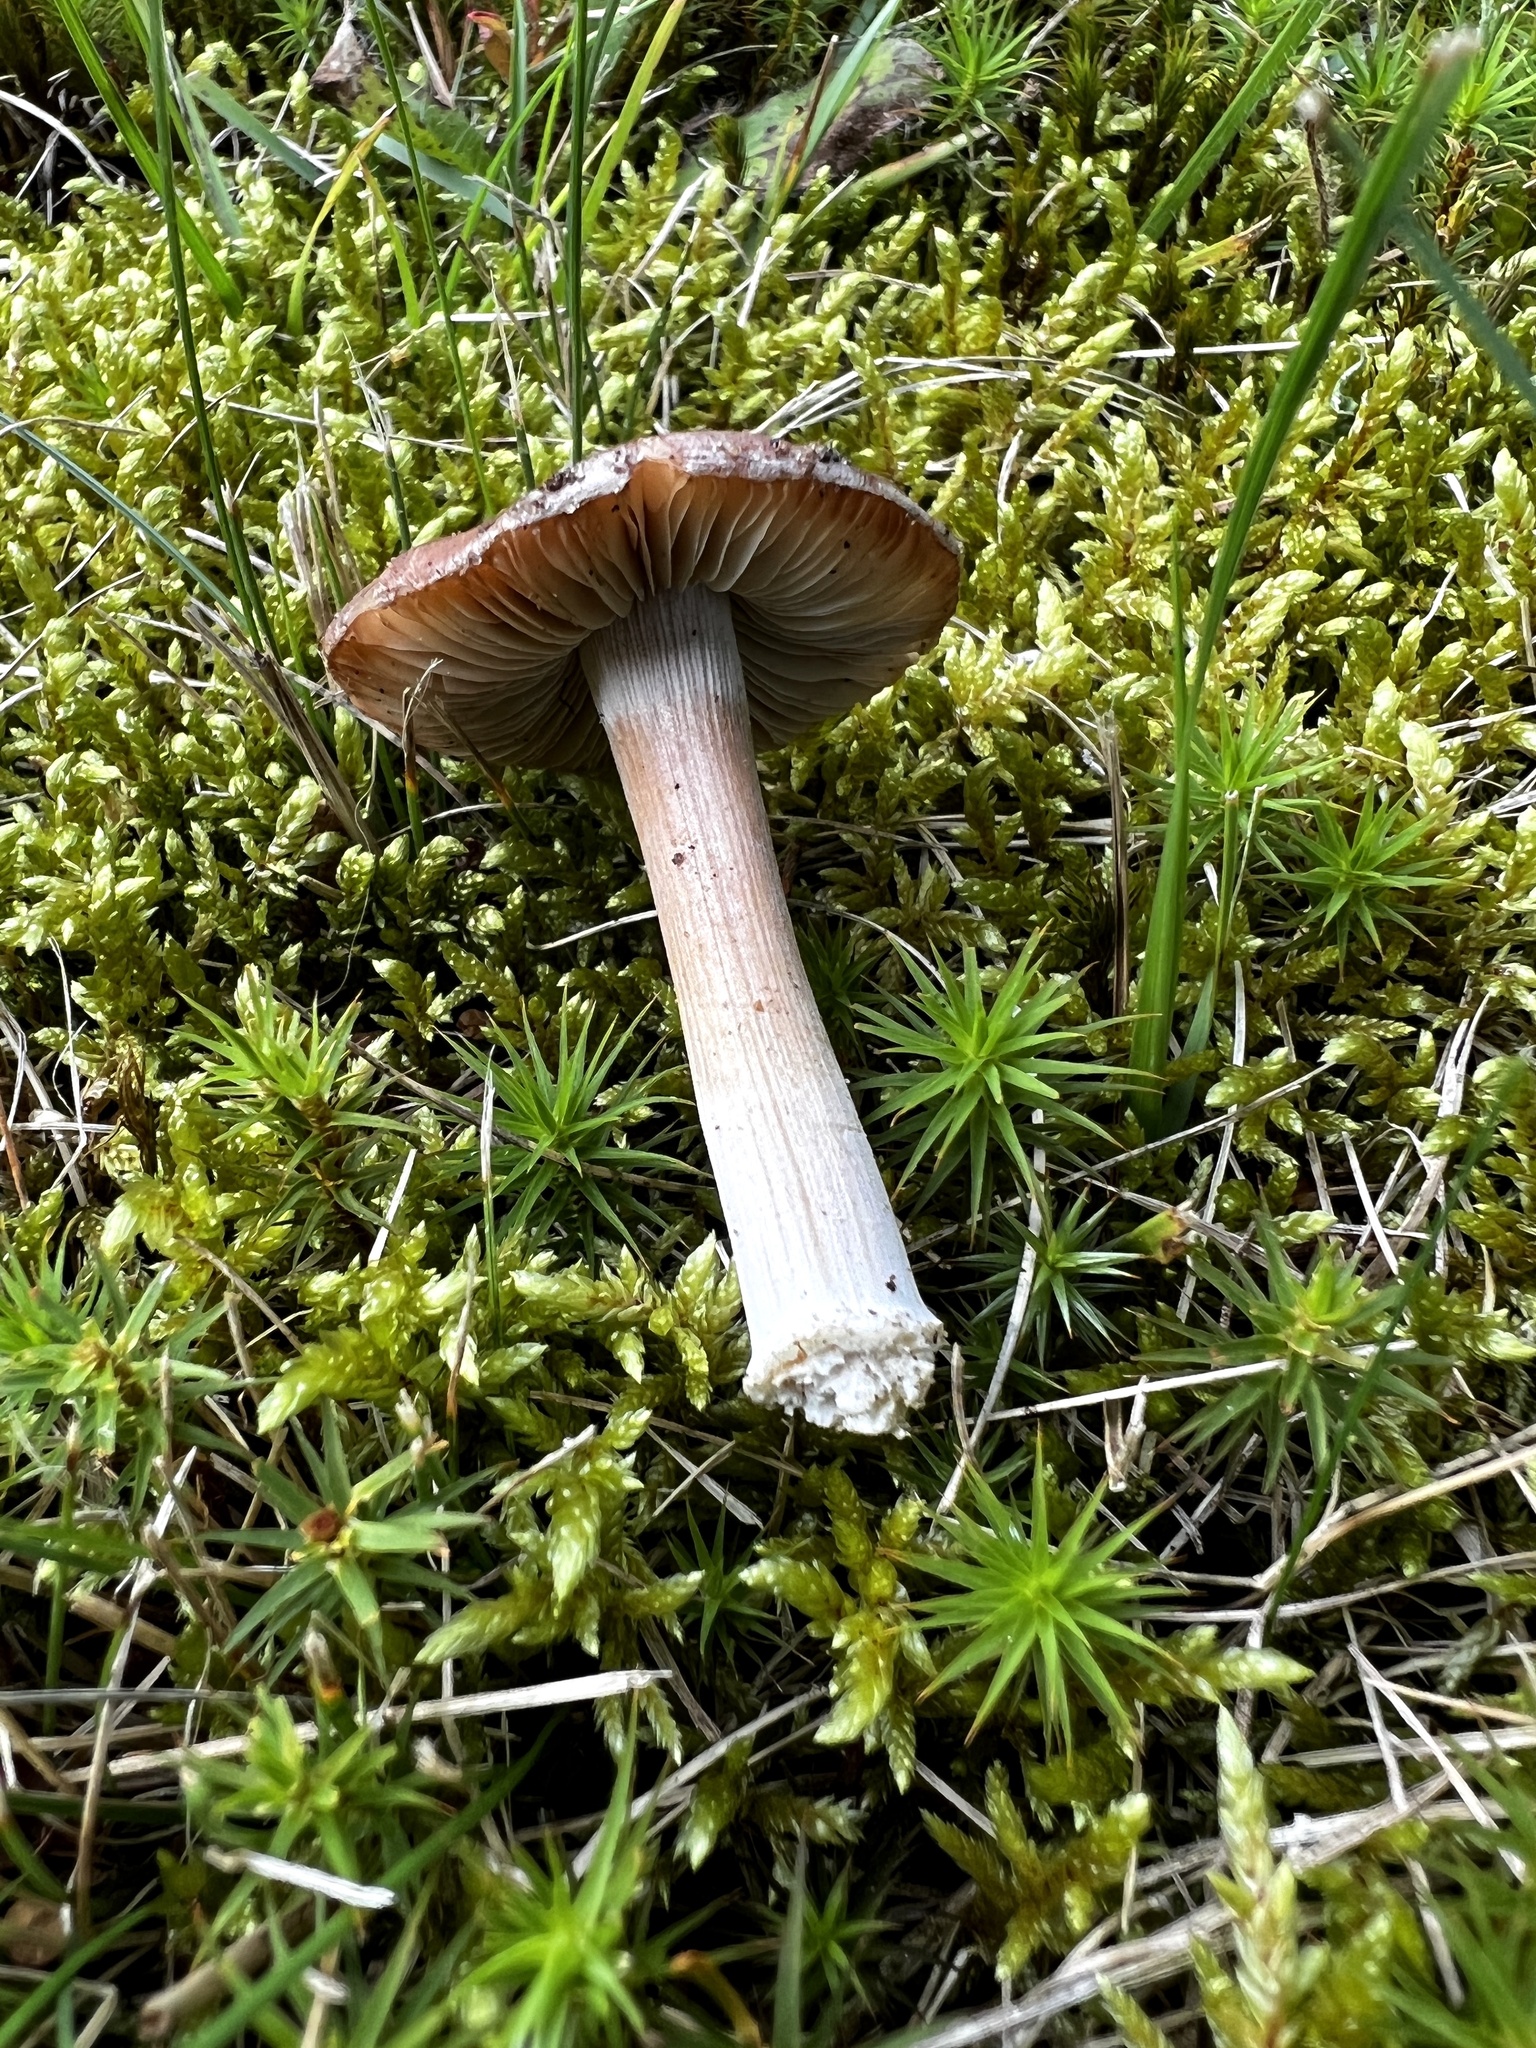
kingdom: Fungi
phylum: Basidiomycota
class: Agaricomycetes
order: Agaricales
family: Inocybaceae
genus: Inocybe
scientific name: Inocybe acriolens
